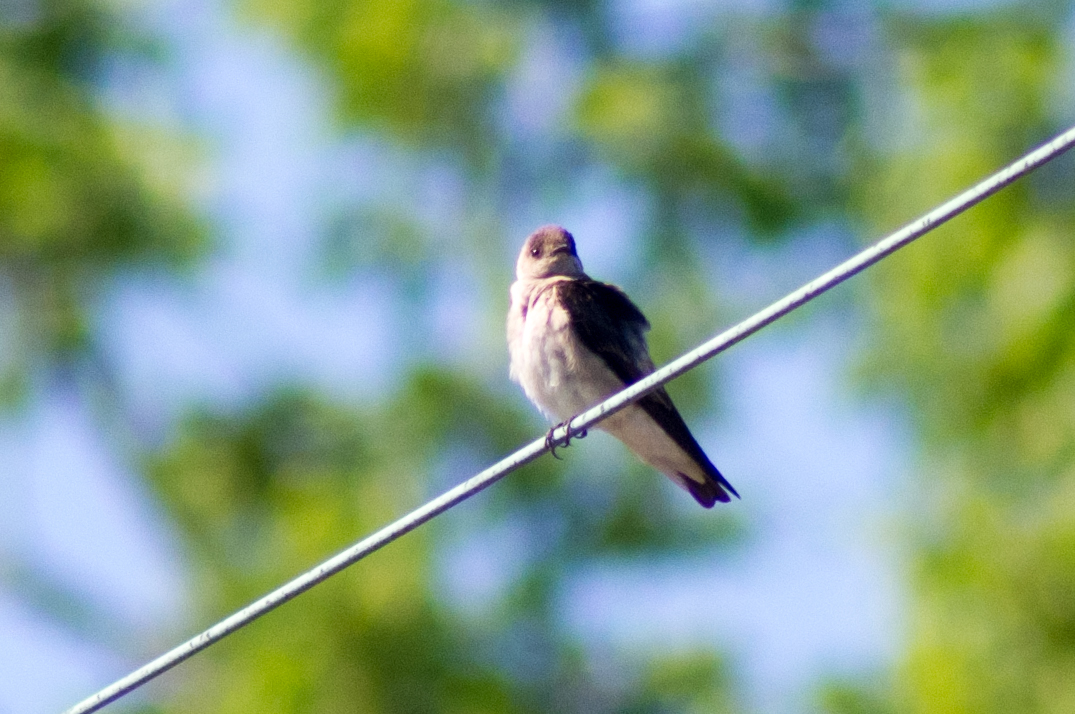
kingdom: Animalia
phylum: Chordata
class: Aves
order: Passeriformes
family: Hirundinidae
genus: Stelgidopteryx
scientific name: Stelgidopteryx serripennis
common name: Northern rough-winged swallow
